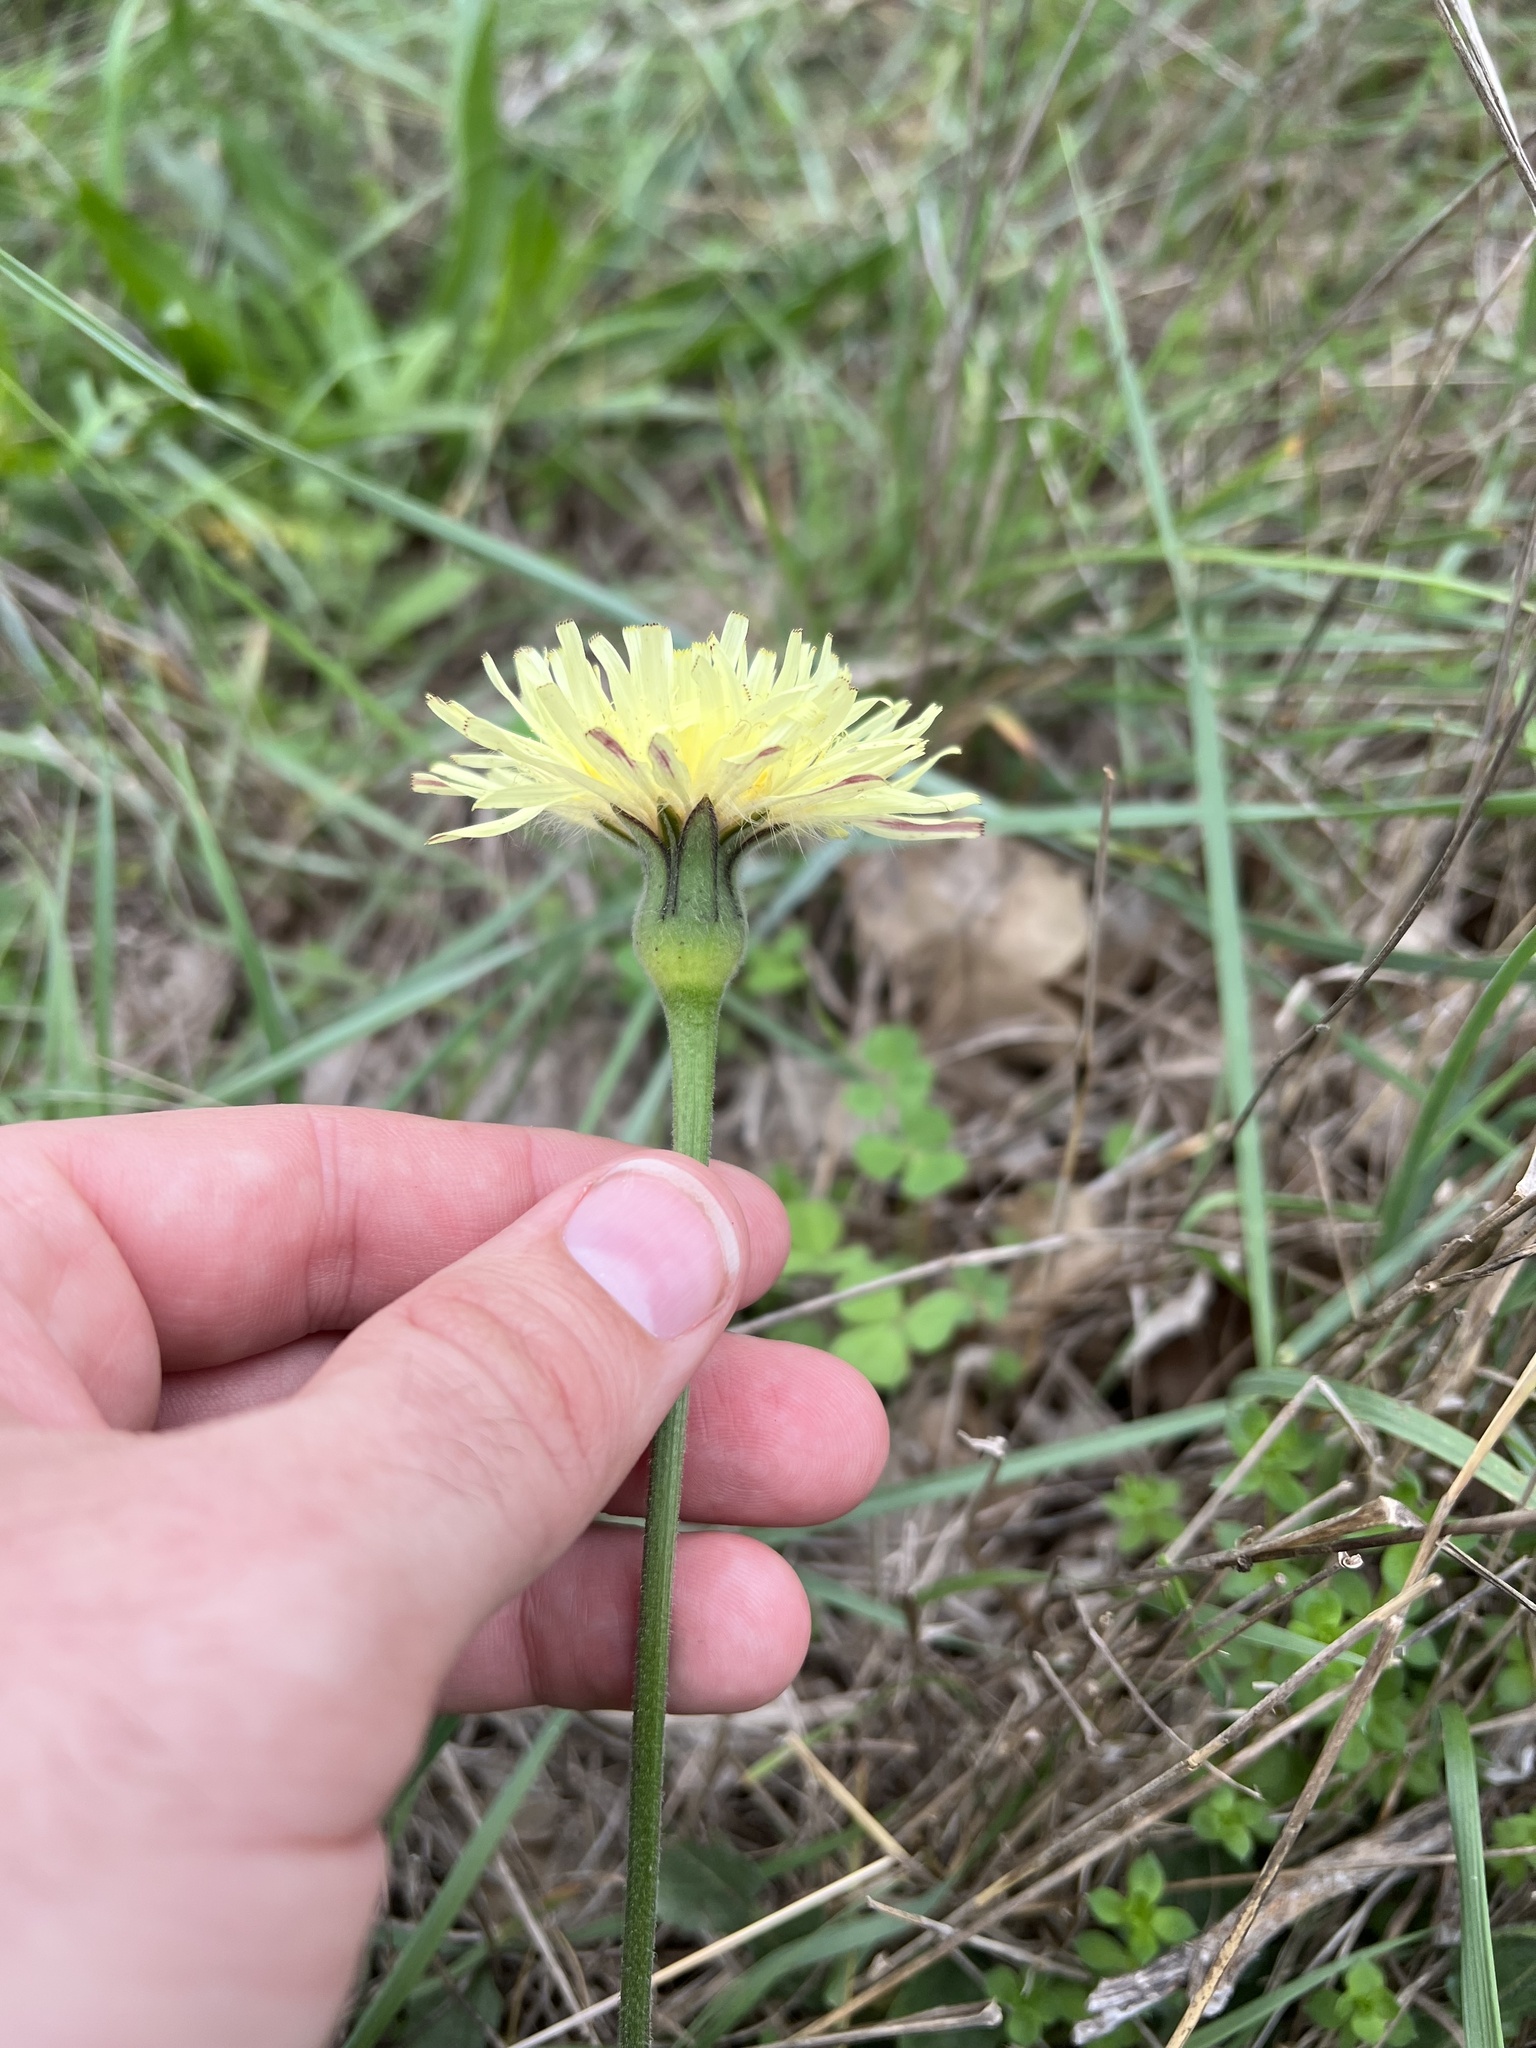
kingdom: Plantae
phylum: Tracheophyta
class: Magnoliopsida
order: Asterales
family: Asteraceae
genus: Urospermum
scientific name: Urospermum dalechampii
